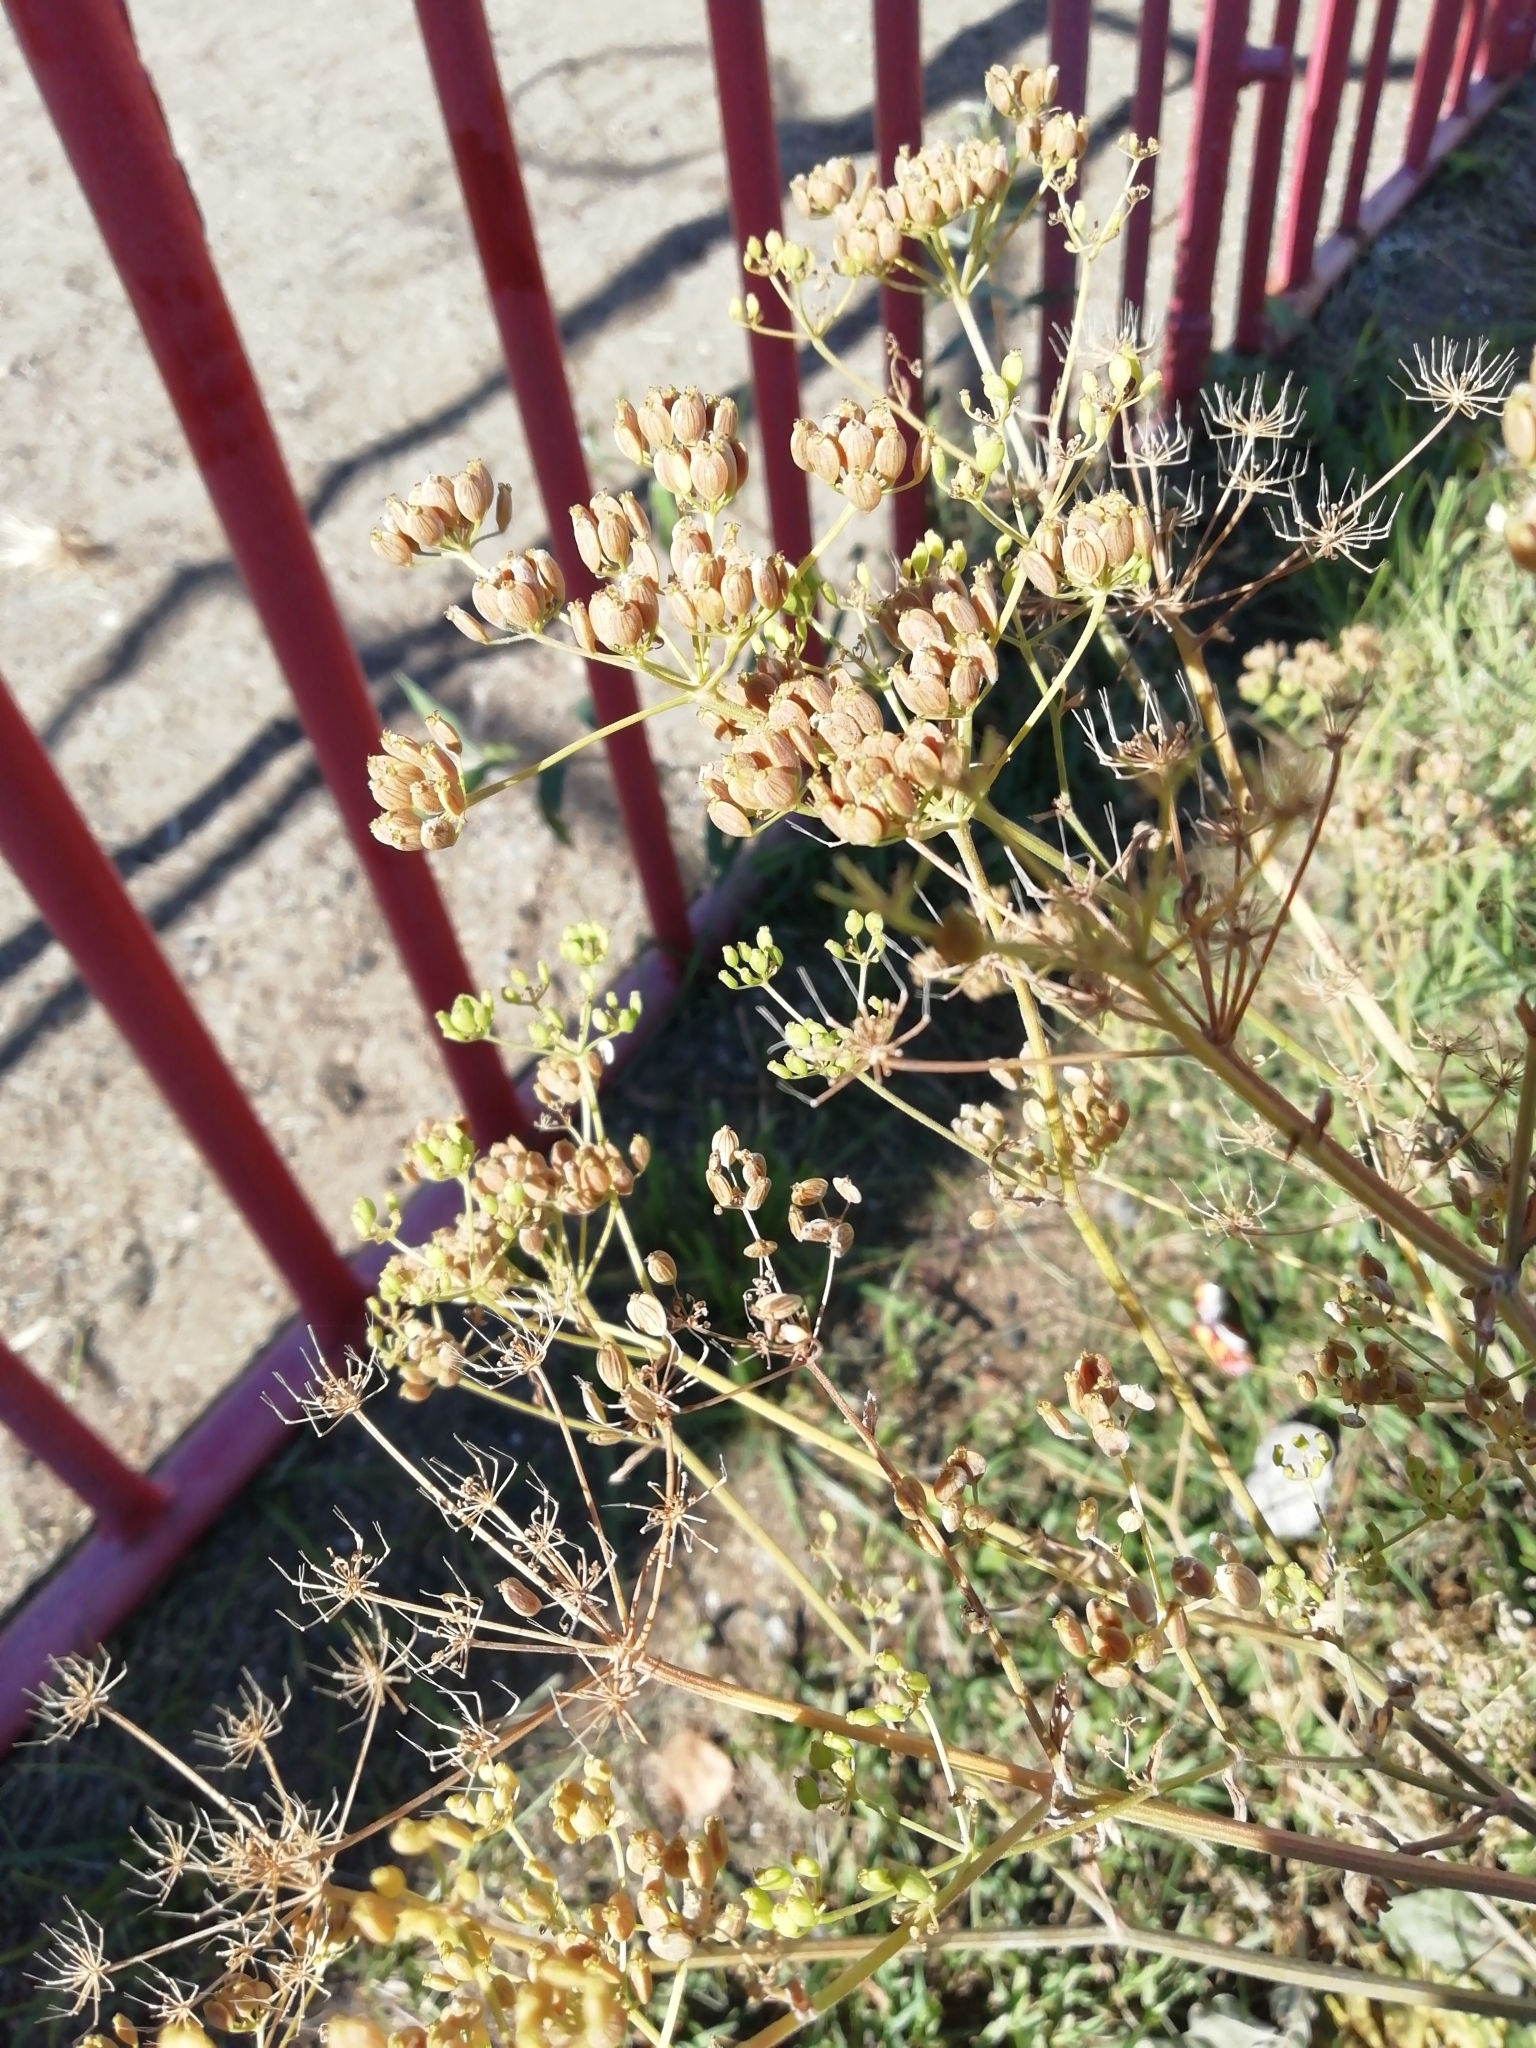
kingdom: Plantae
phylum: Tracheophyta
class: Magnoliopsida
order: Apiales
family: Apiaceae
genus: Pastinaca
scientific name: Pastinaca sativa
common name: Wild parsnip
